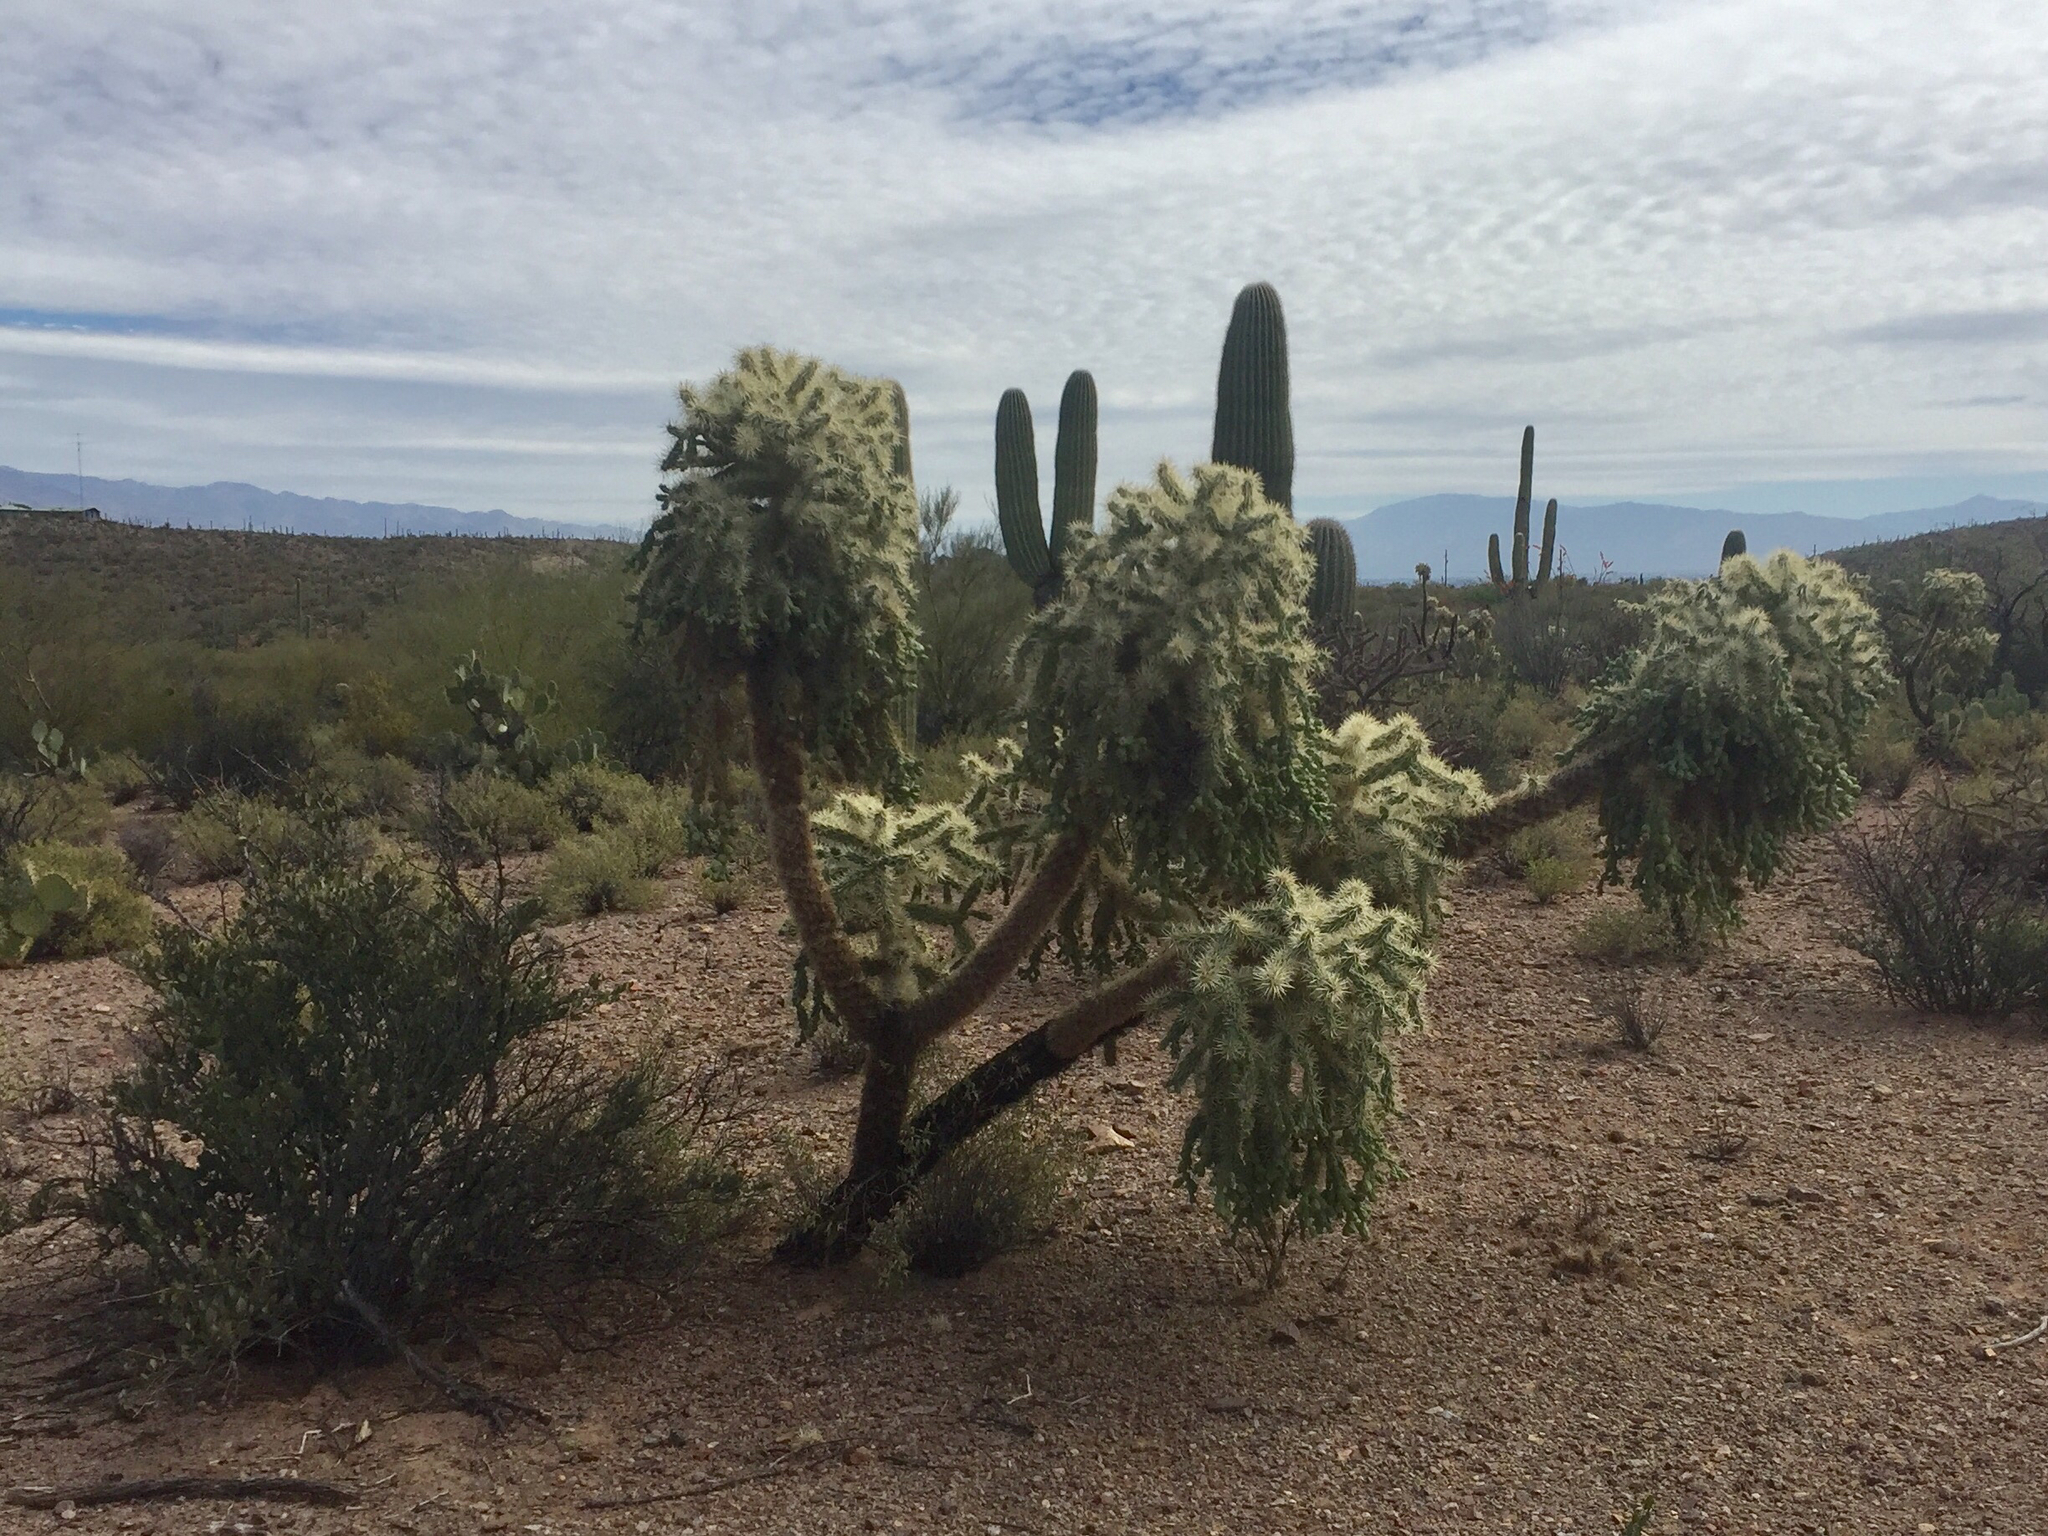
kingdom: Plantae
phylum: Tracheophyta
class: Magnoliopsida
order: Caryophyllales
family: Cactaceae
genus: Cylindropuntia
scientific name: Cylindropuntia fulgida
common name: Jumping cholla
